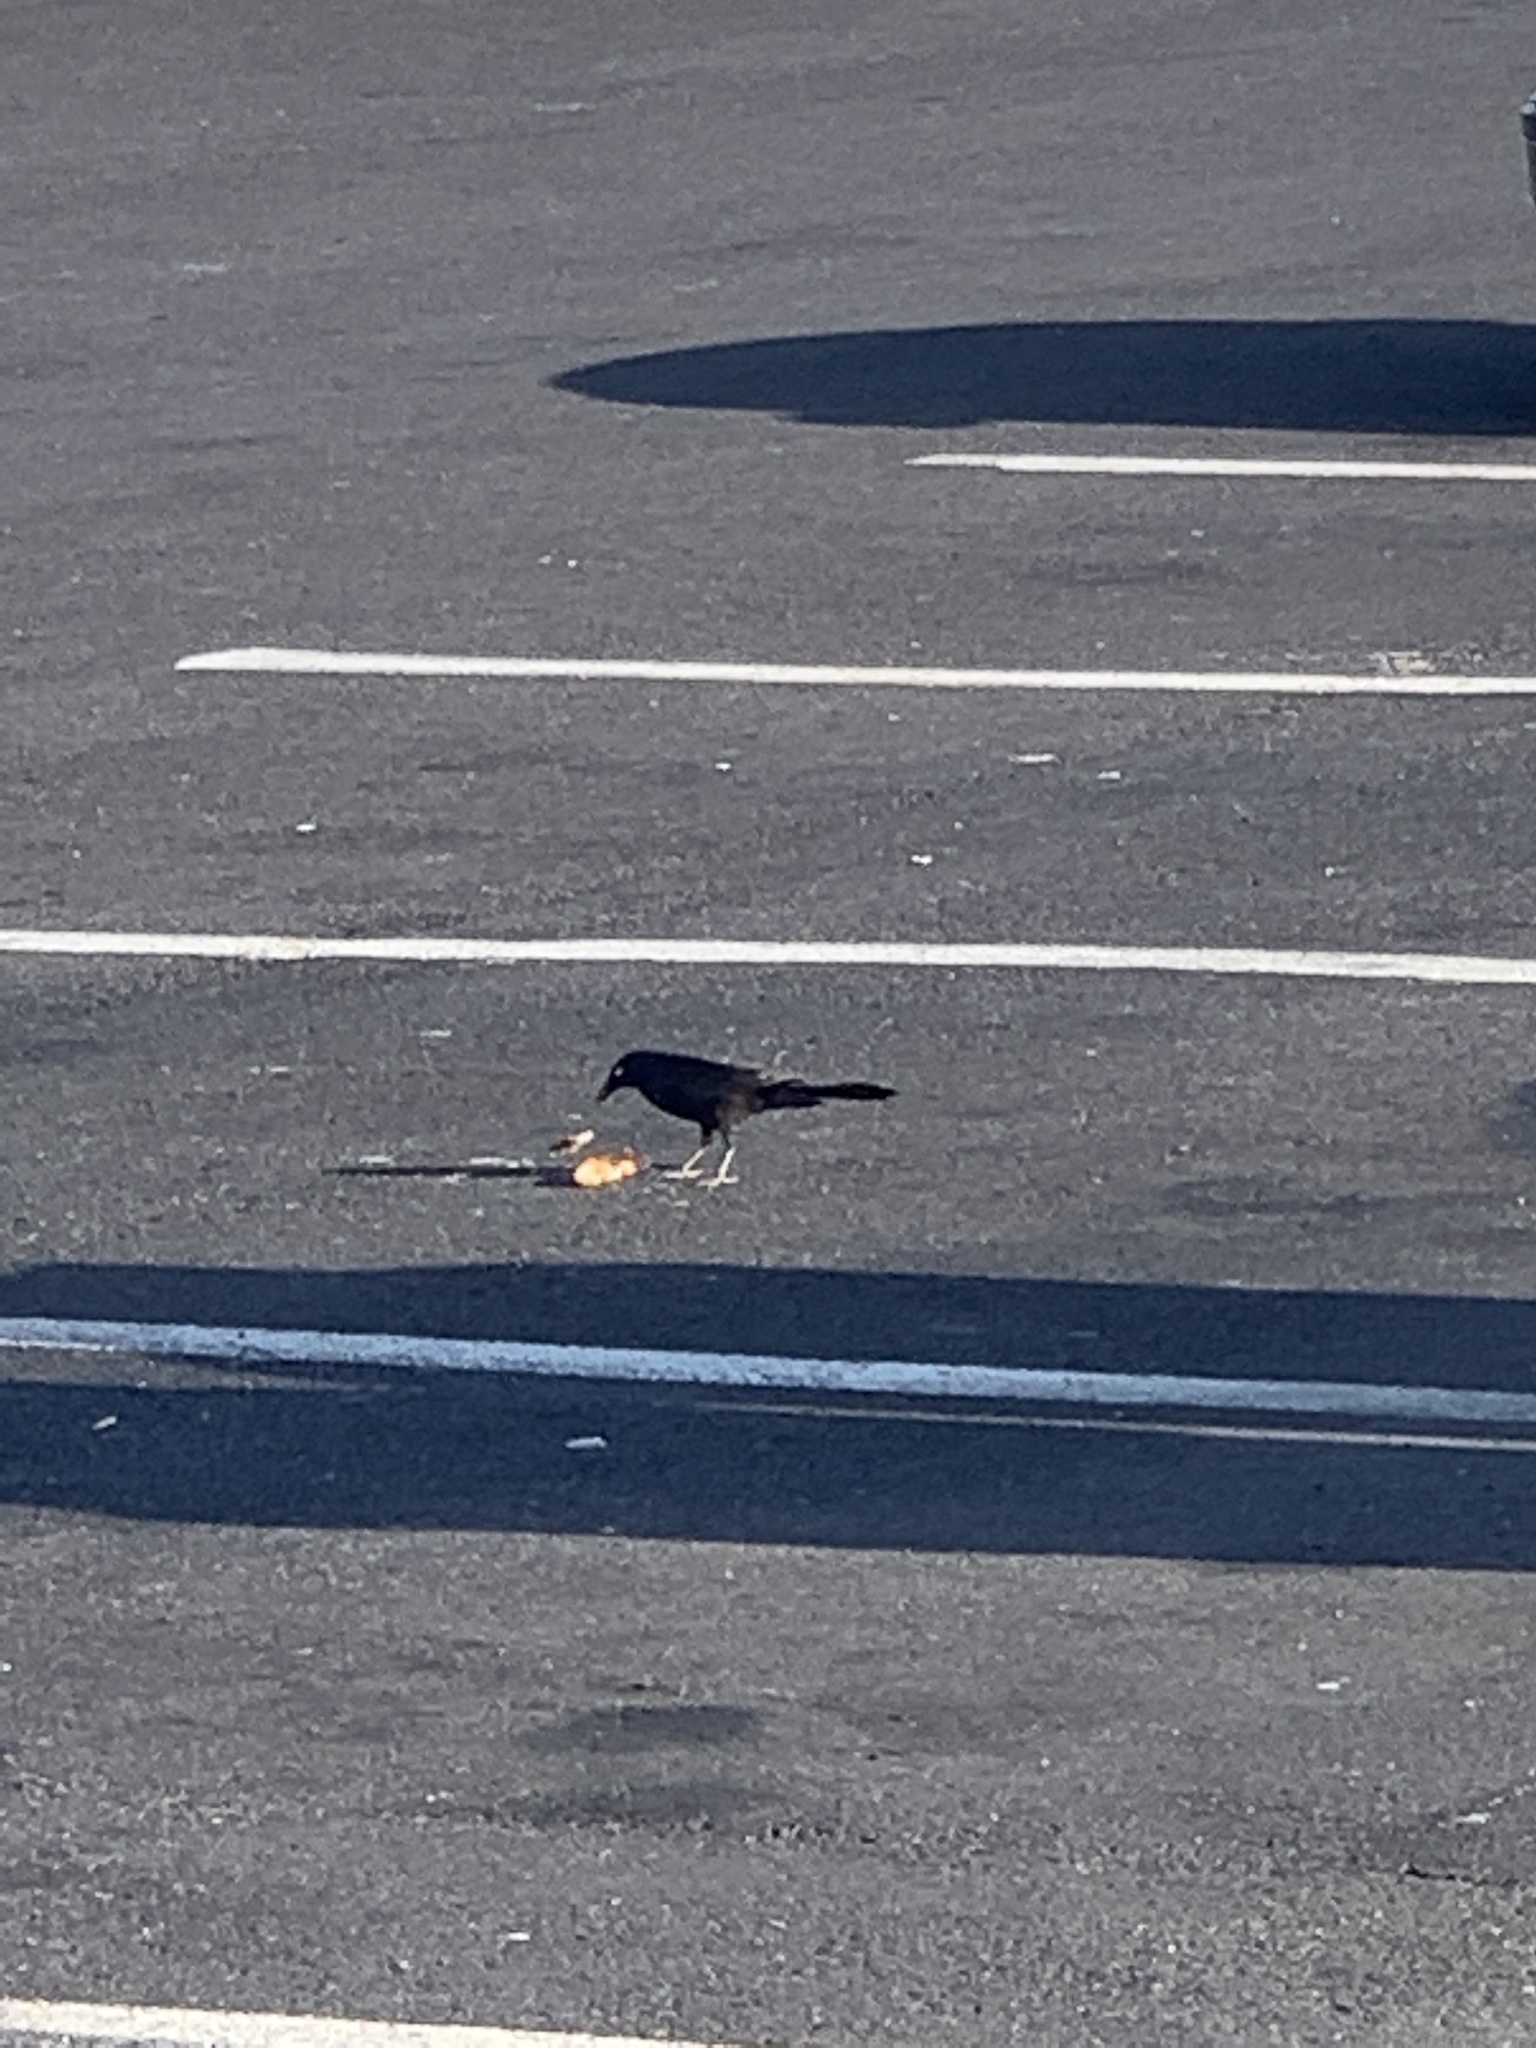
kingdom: Animalia
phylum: Chordata
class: Aves
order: Passeriformes
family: Icteridae
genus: Quiscalus
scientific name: Quiscalus quiscula
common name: Common grackle
